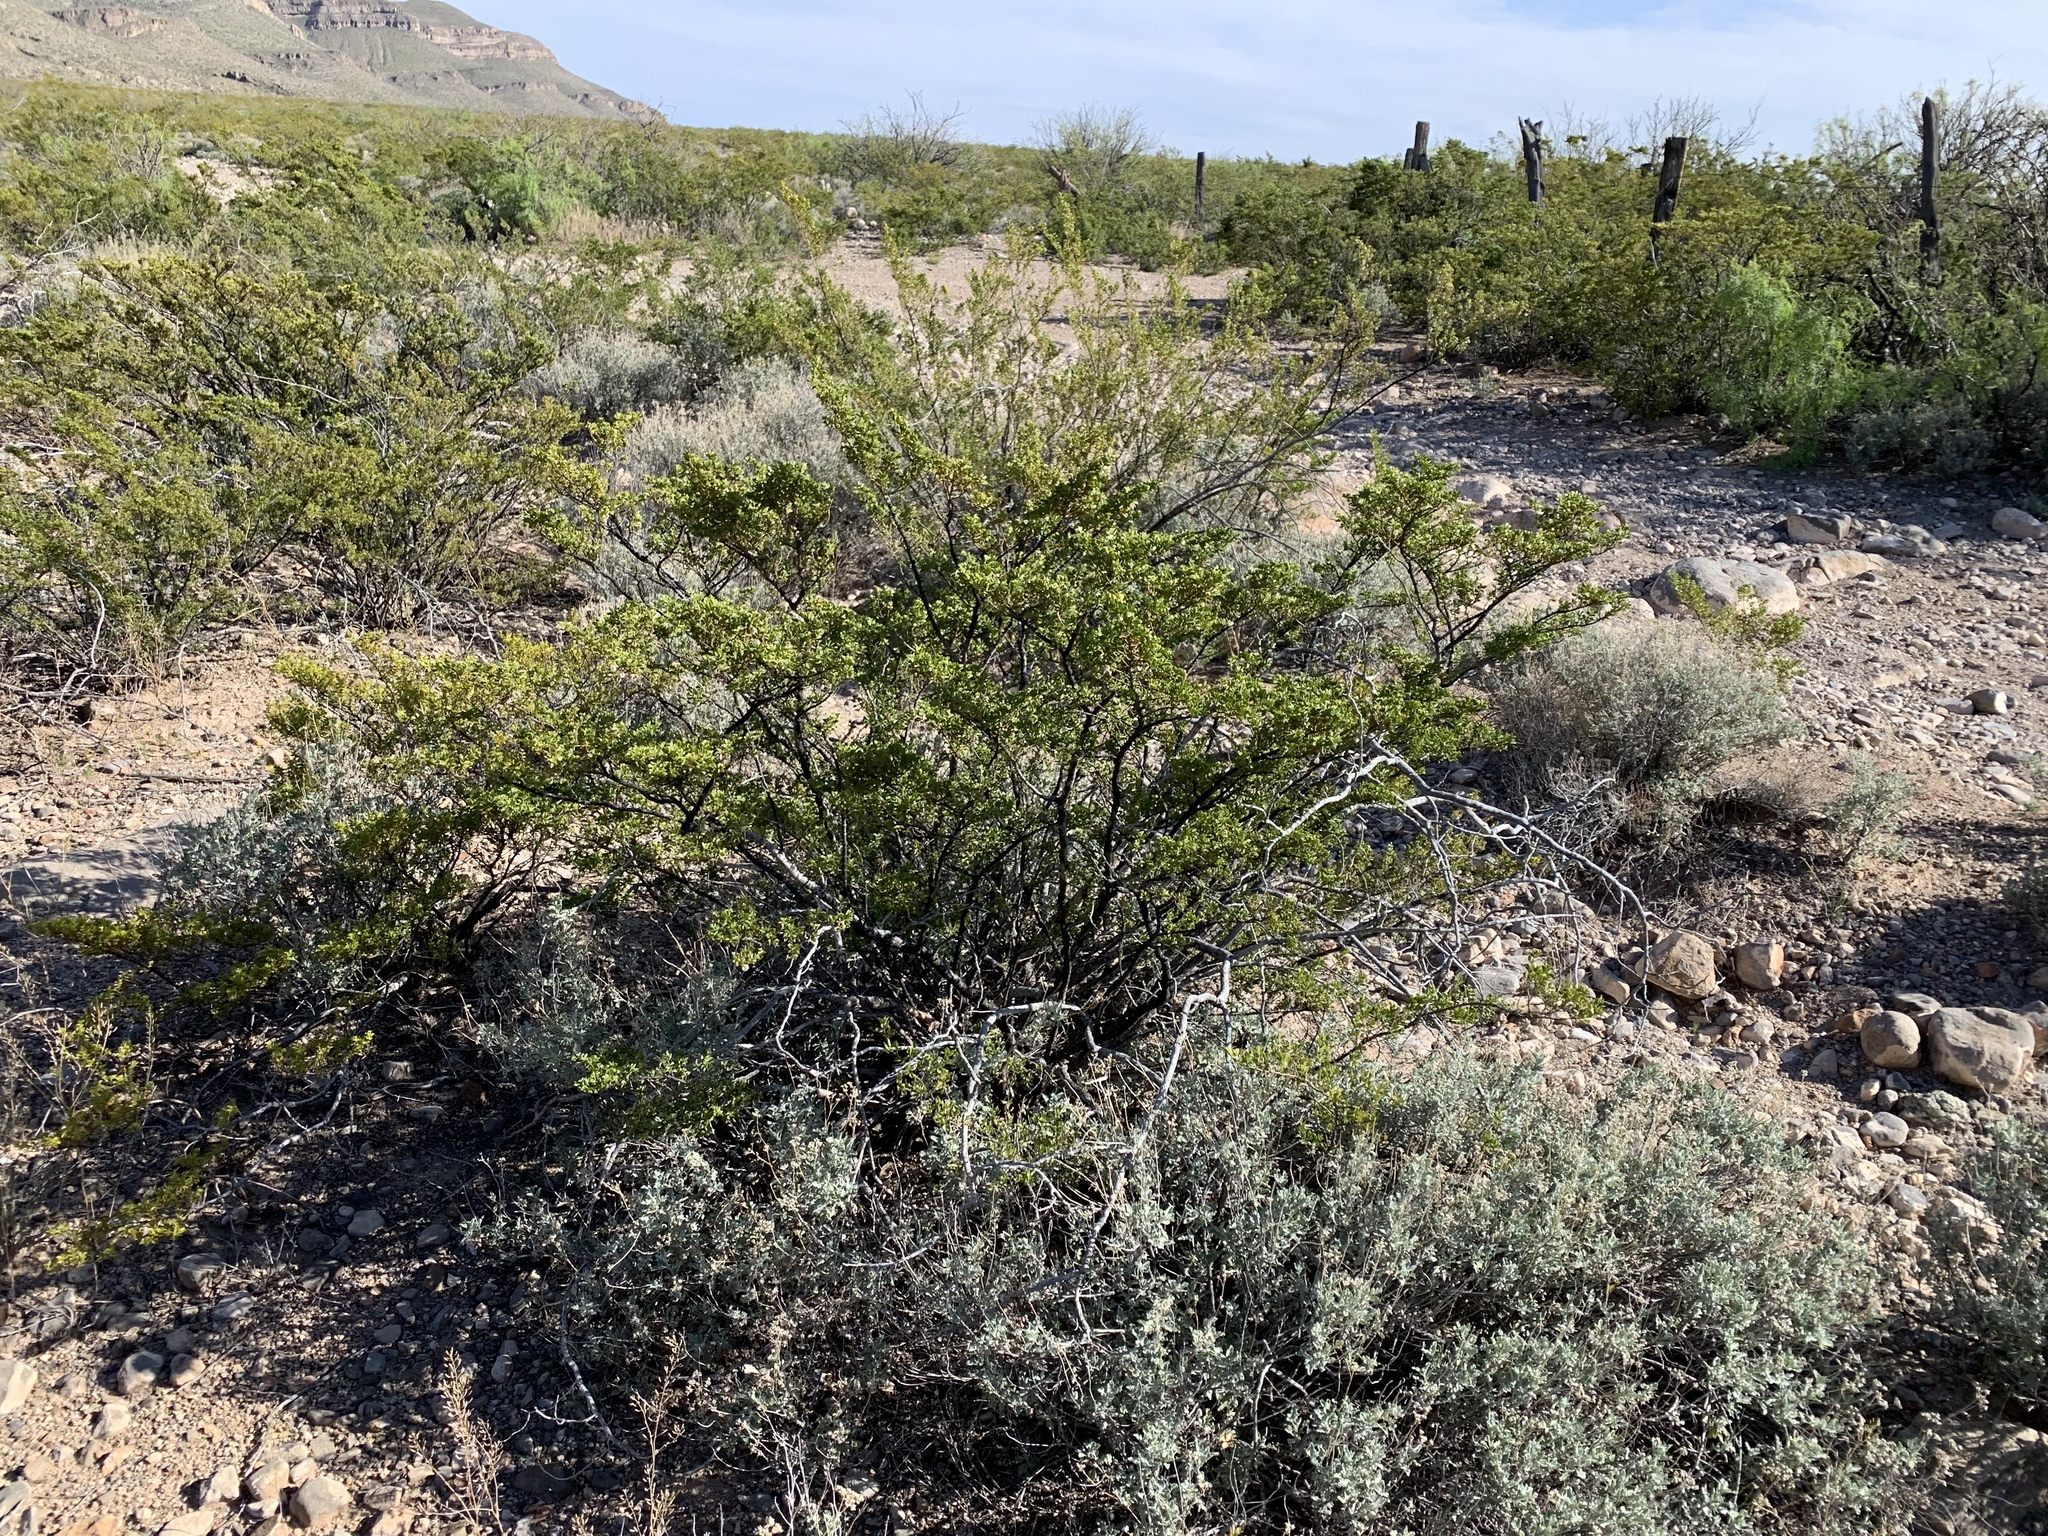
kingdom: Plantae
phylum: Tracheophyta
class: Magnoliopsida
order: Zygophyllales
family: Zygophyllaceae
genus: Larrea
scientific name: Larrea tridentata
